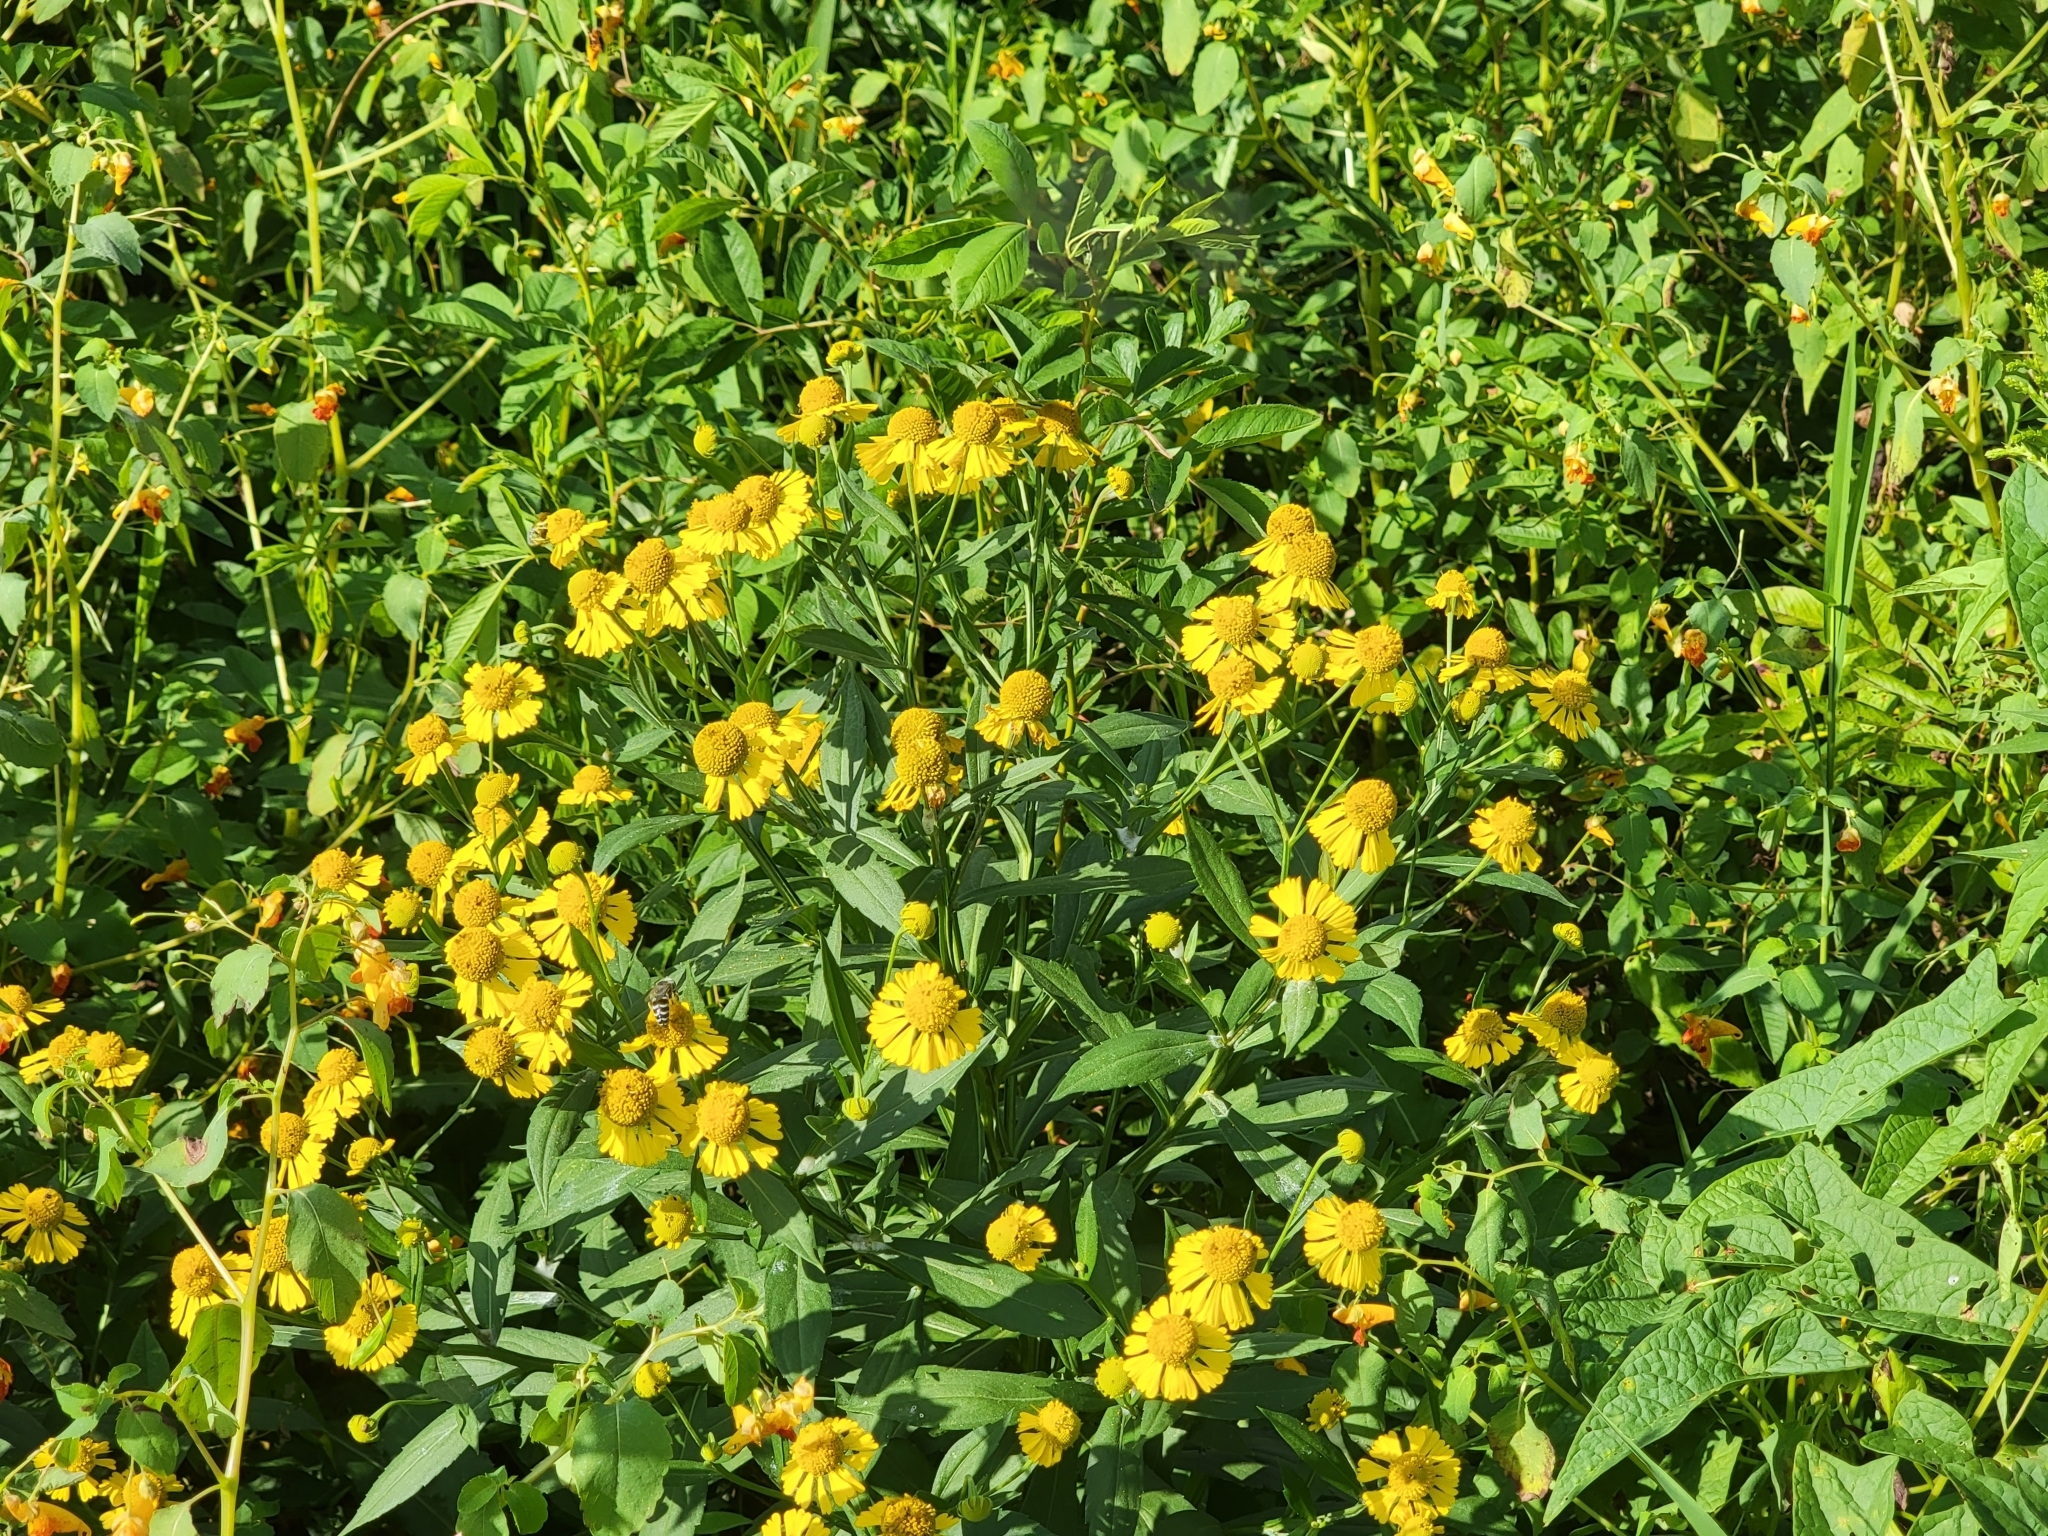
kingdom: Plantae
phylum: Tracheophyta
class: Magnoliopsida
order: Asterales
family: Asteraceae
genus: Helenium
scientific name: Helenium autumnale
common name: Sneezeweed
